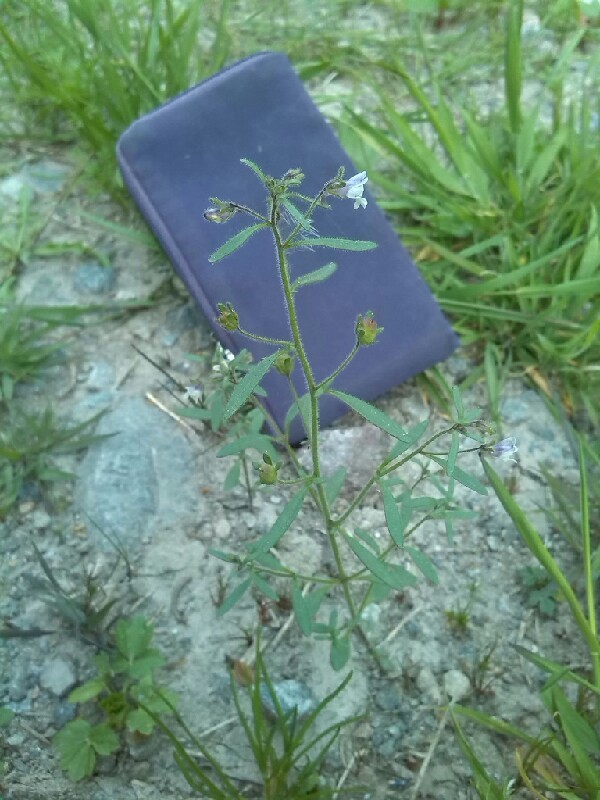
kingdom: Plantae
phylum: Tracheophyta
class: Magnoliopsida
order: Lamiales
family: Plantaginaceae
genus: Chaenorhinum
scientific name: Chaenorhinum minus
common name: Dwarf snapdragon
